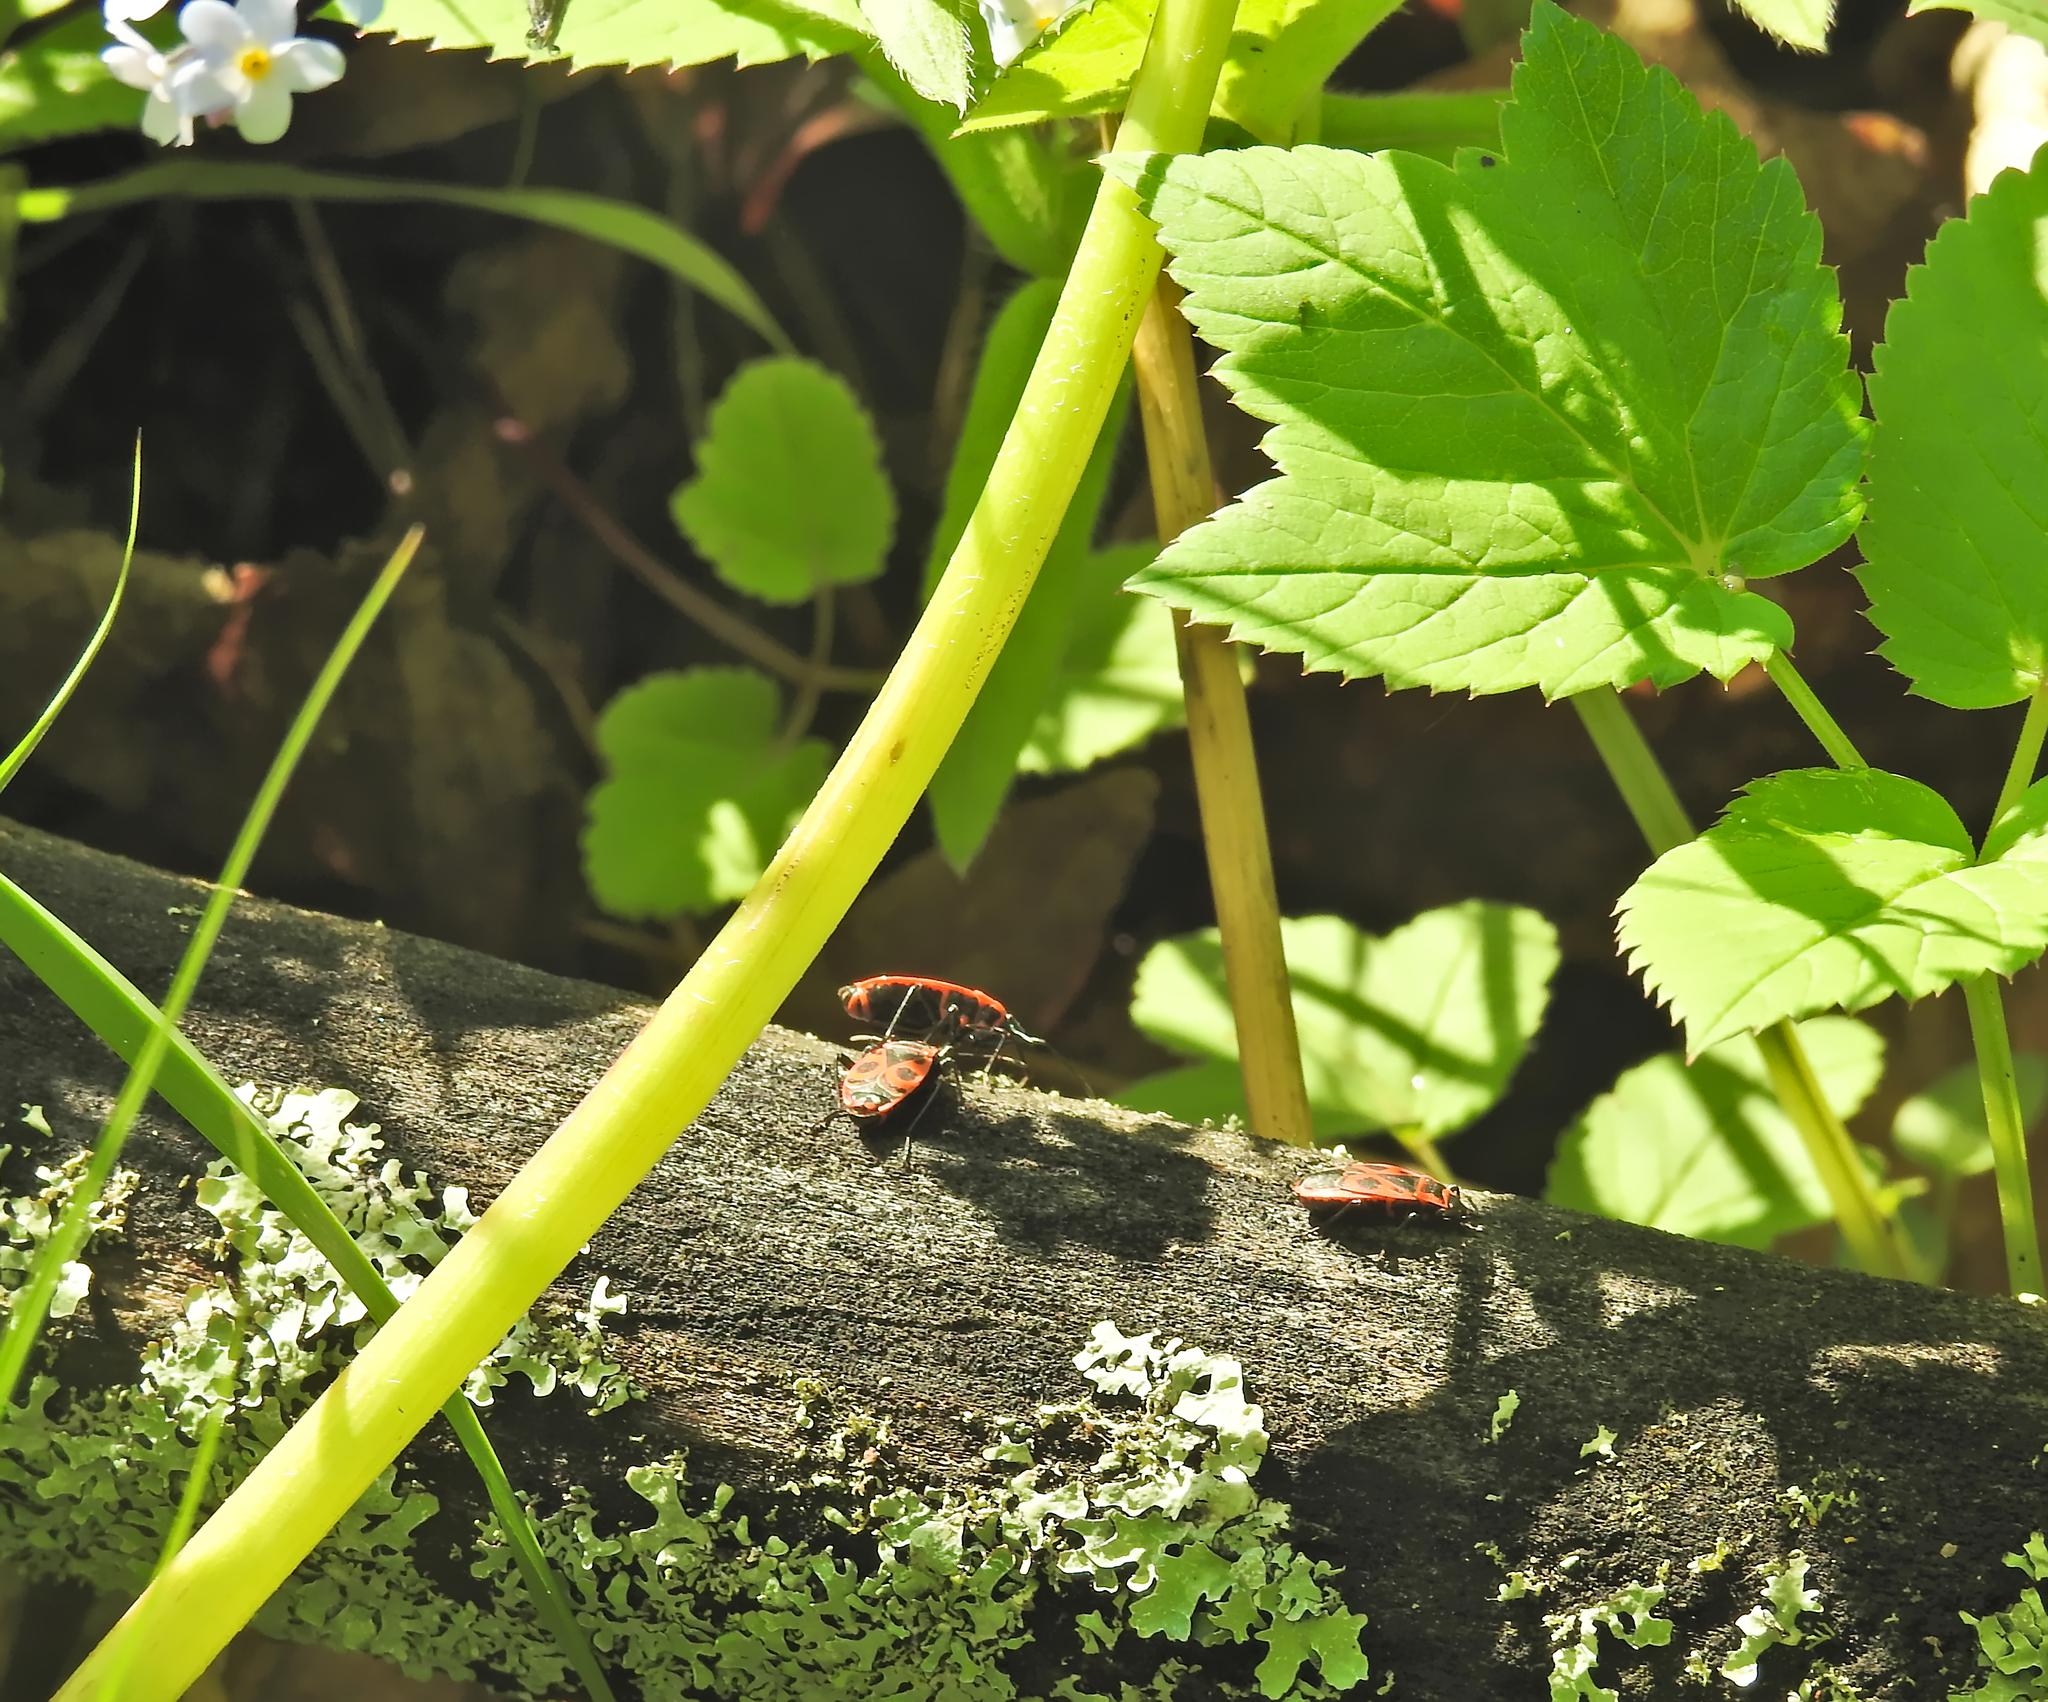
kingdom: Animalia
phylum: Arthropoda
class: Insecta
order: Hemiptera
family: Pyrrhocoridae
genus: Pyrrhocoris
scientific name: Pyrrhocoris apterus
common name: Firebug
